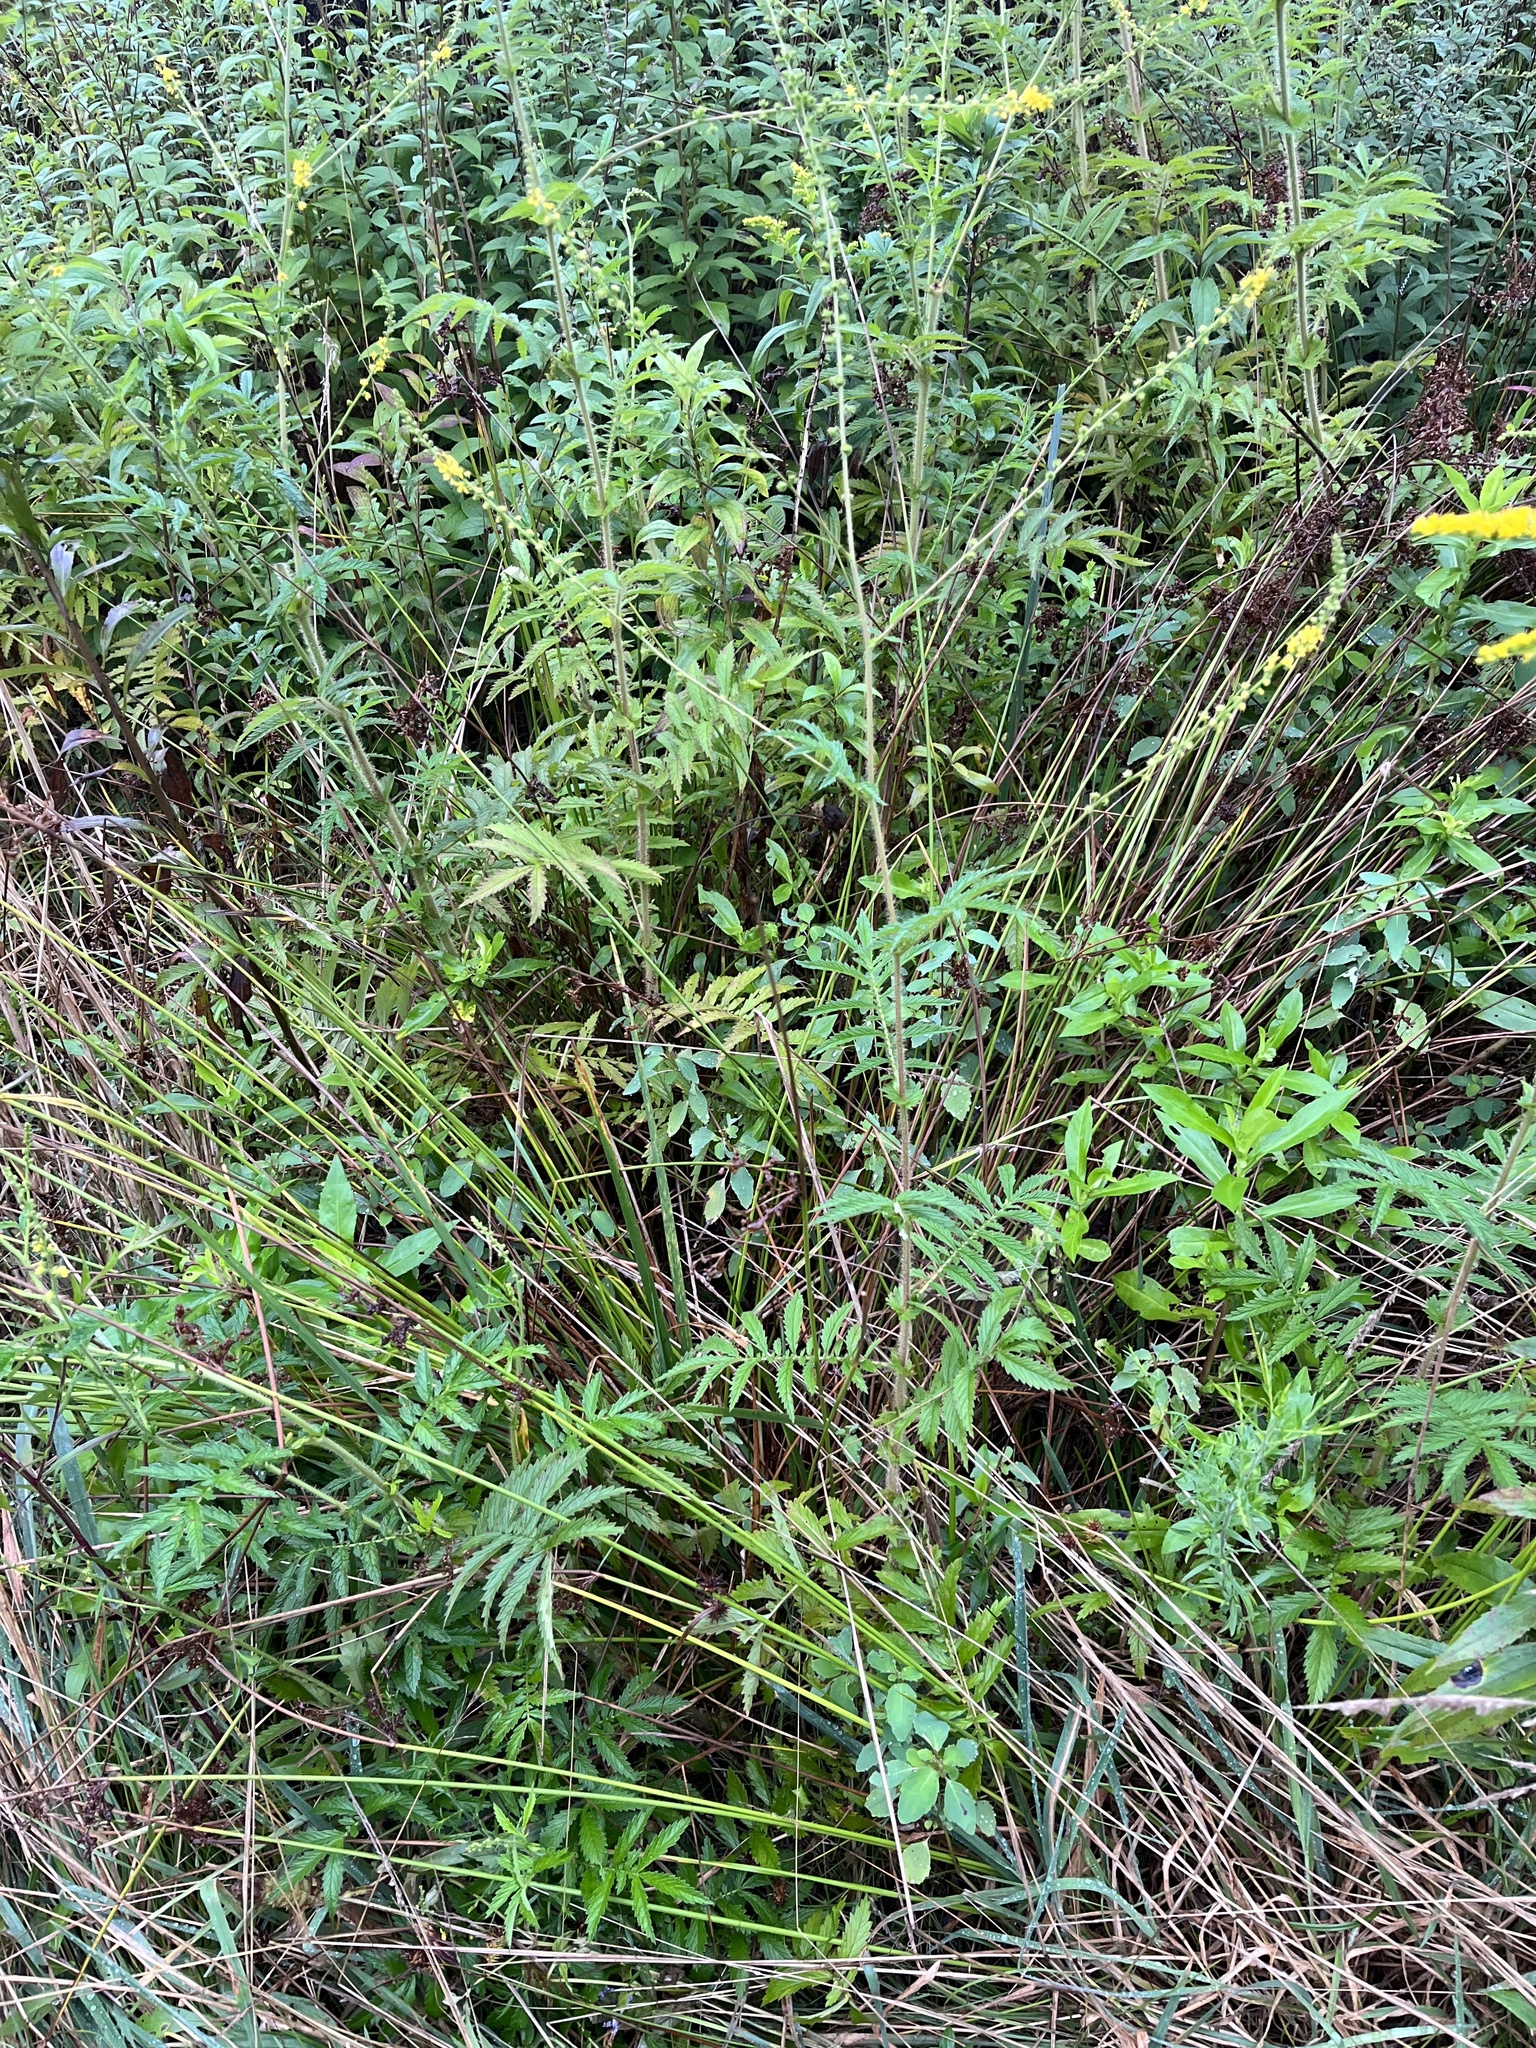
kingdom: Plantae
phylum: Tracheophyta
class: Magnoliopsida
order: Rosales
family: Rosaceae
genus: Agrimonia
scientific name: Agrimonia parviflora
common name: Harvest-lice
